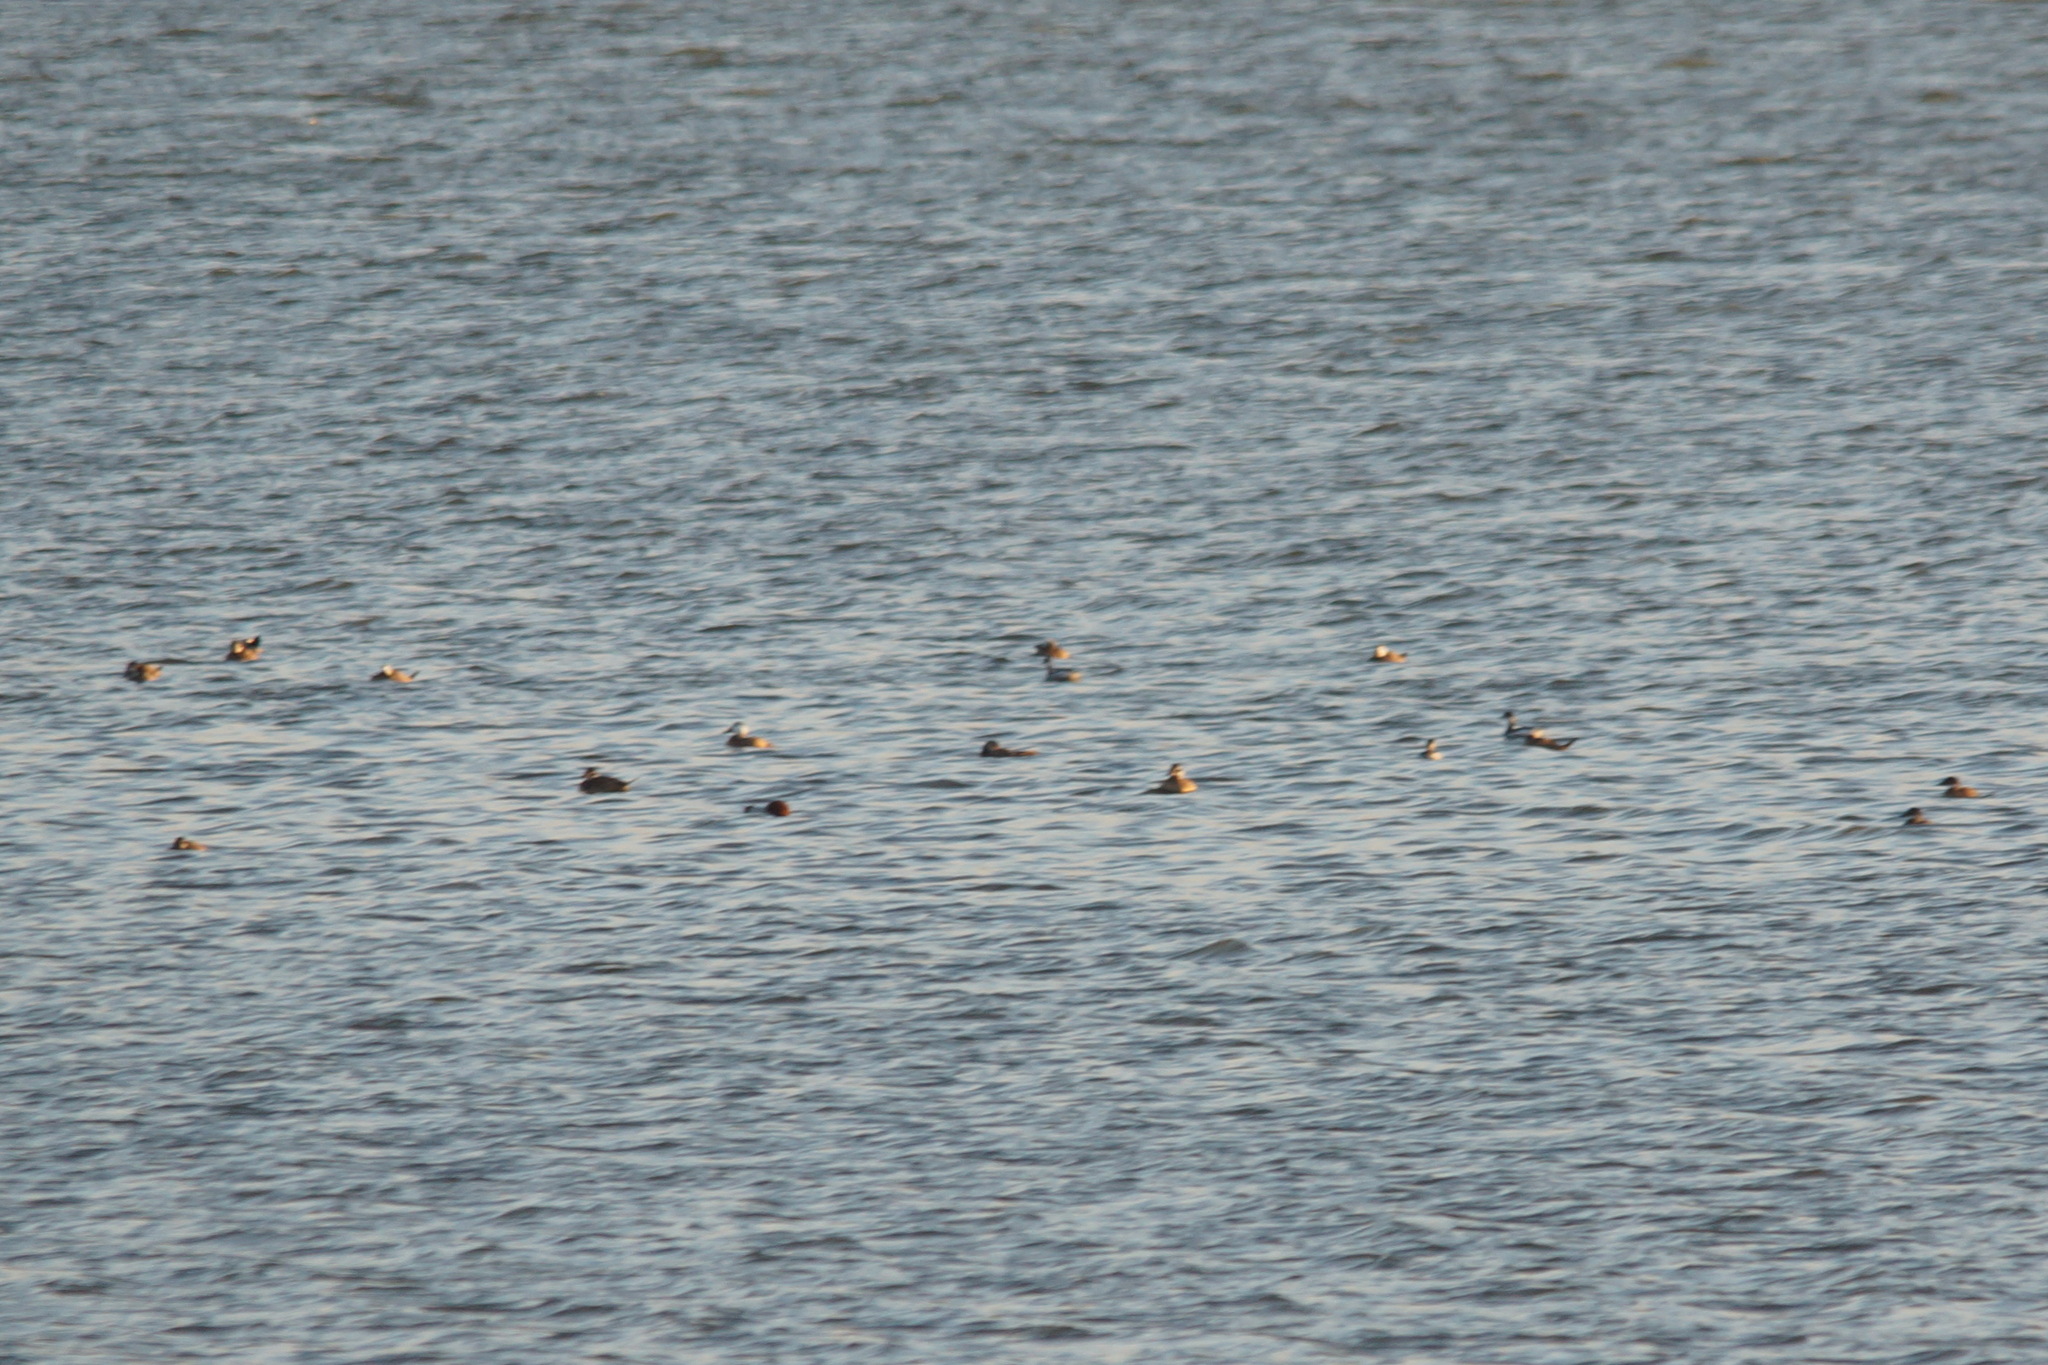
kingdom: Animalia
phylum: Chordata
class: Aves
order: Anseriformes
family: Anatidae
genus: Oxyura
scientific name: Oxyura leucocephala
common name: White-headed duck
